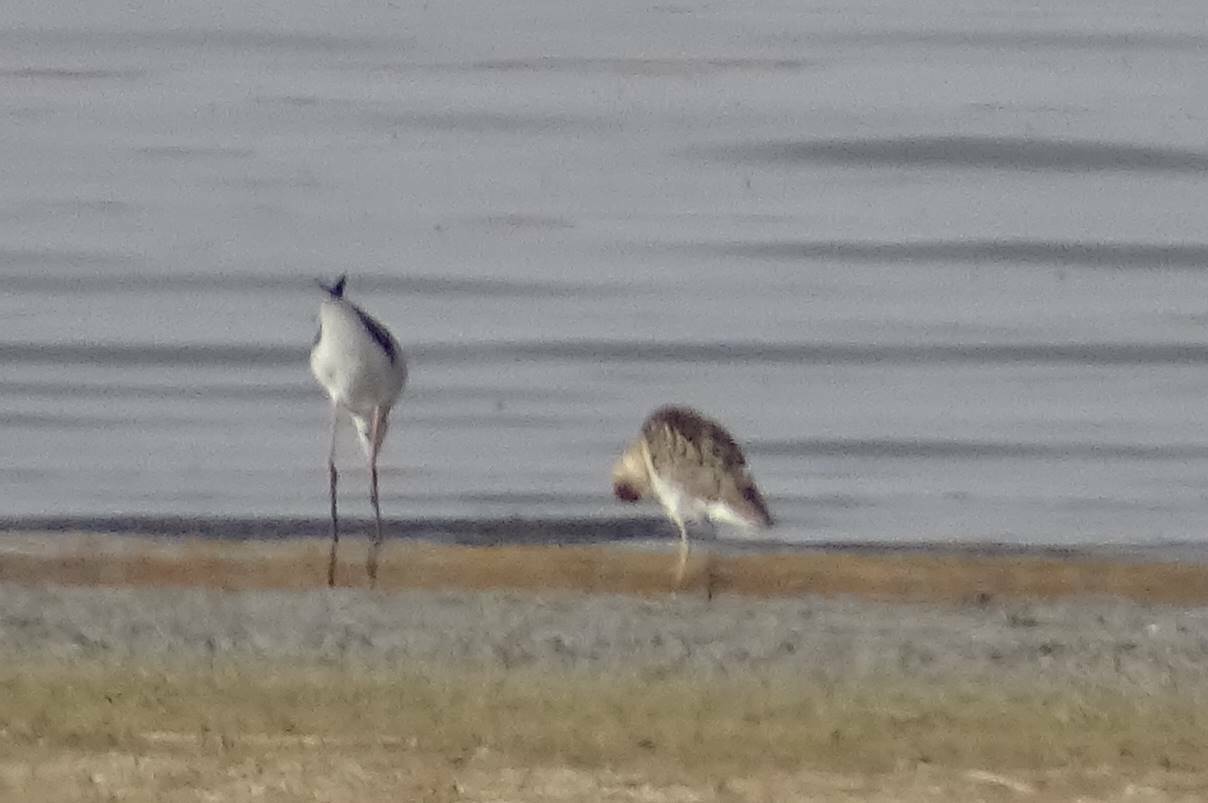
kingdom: Animalia
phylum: Chordata
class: Aves
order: Charadriiformes
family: Scolopacidae
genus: Calidris
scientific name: Calidris pugnax
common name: Ruff
